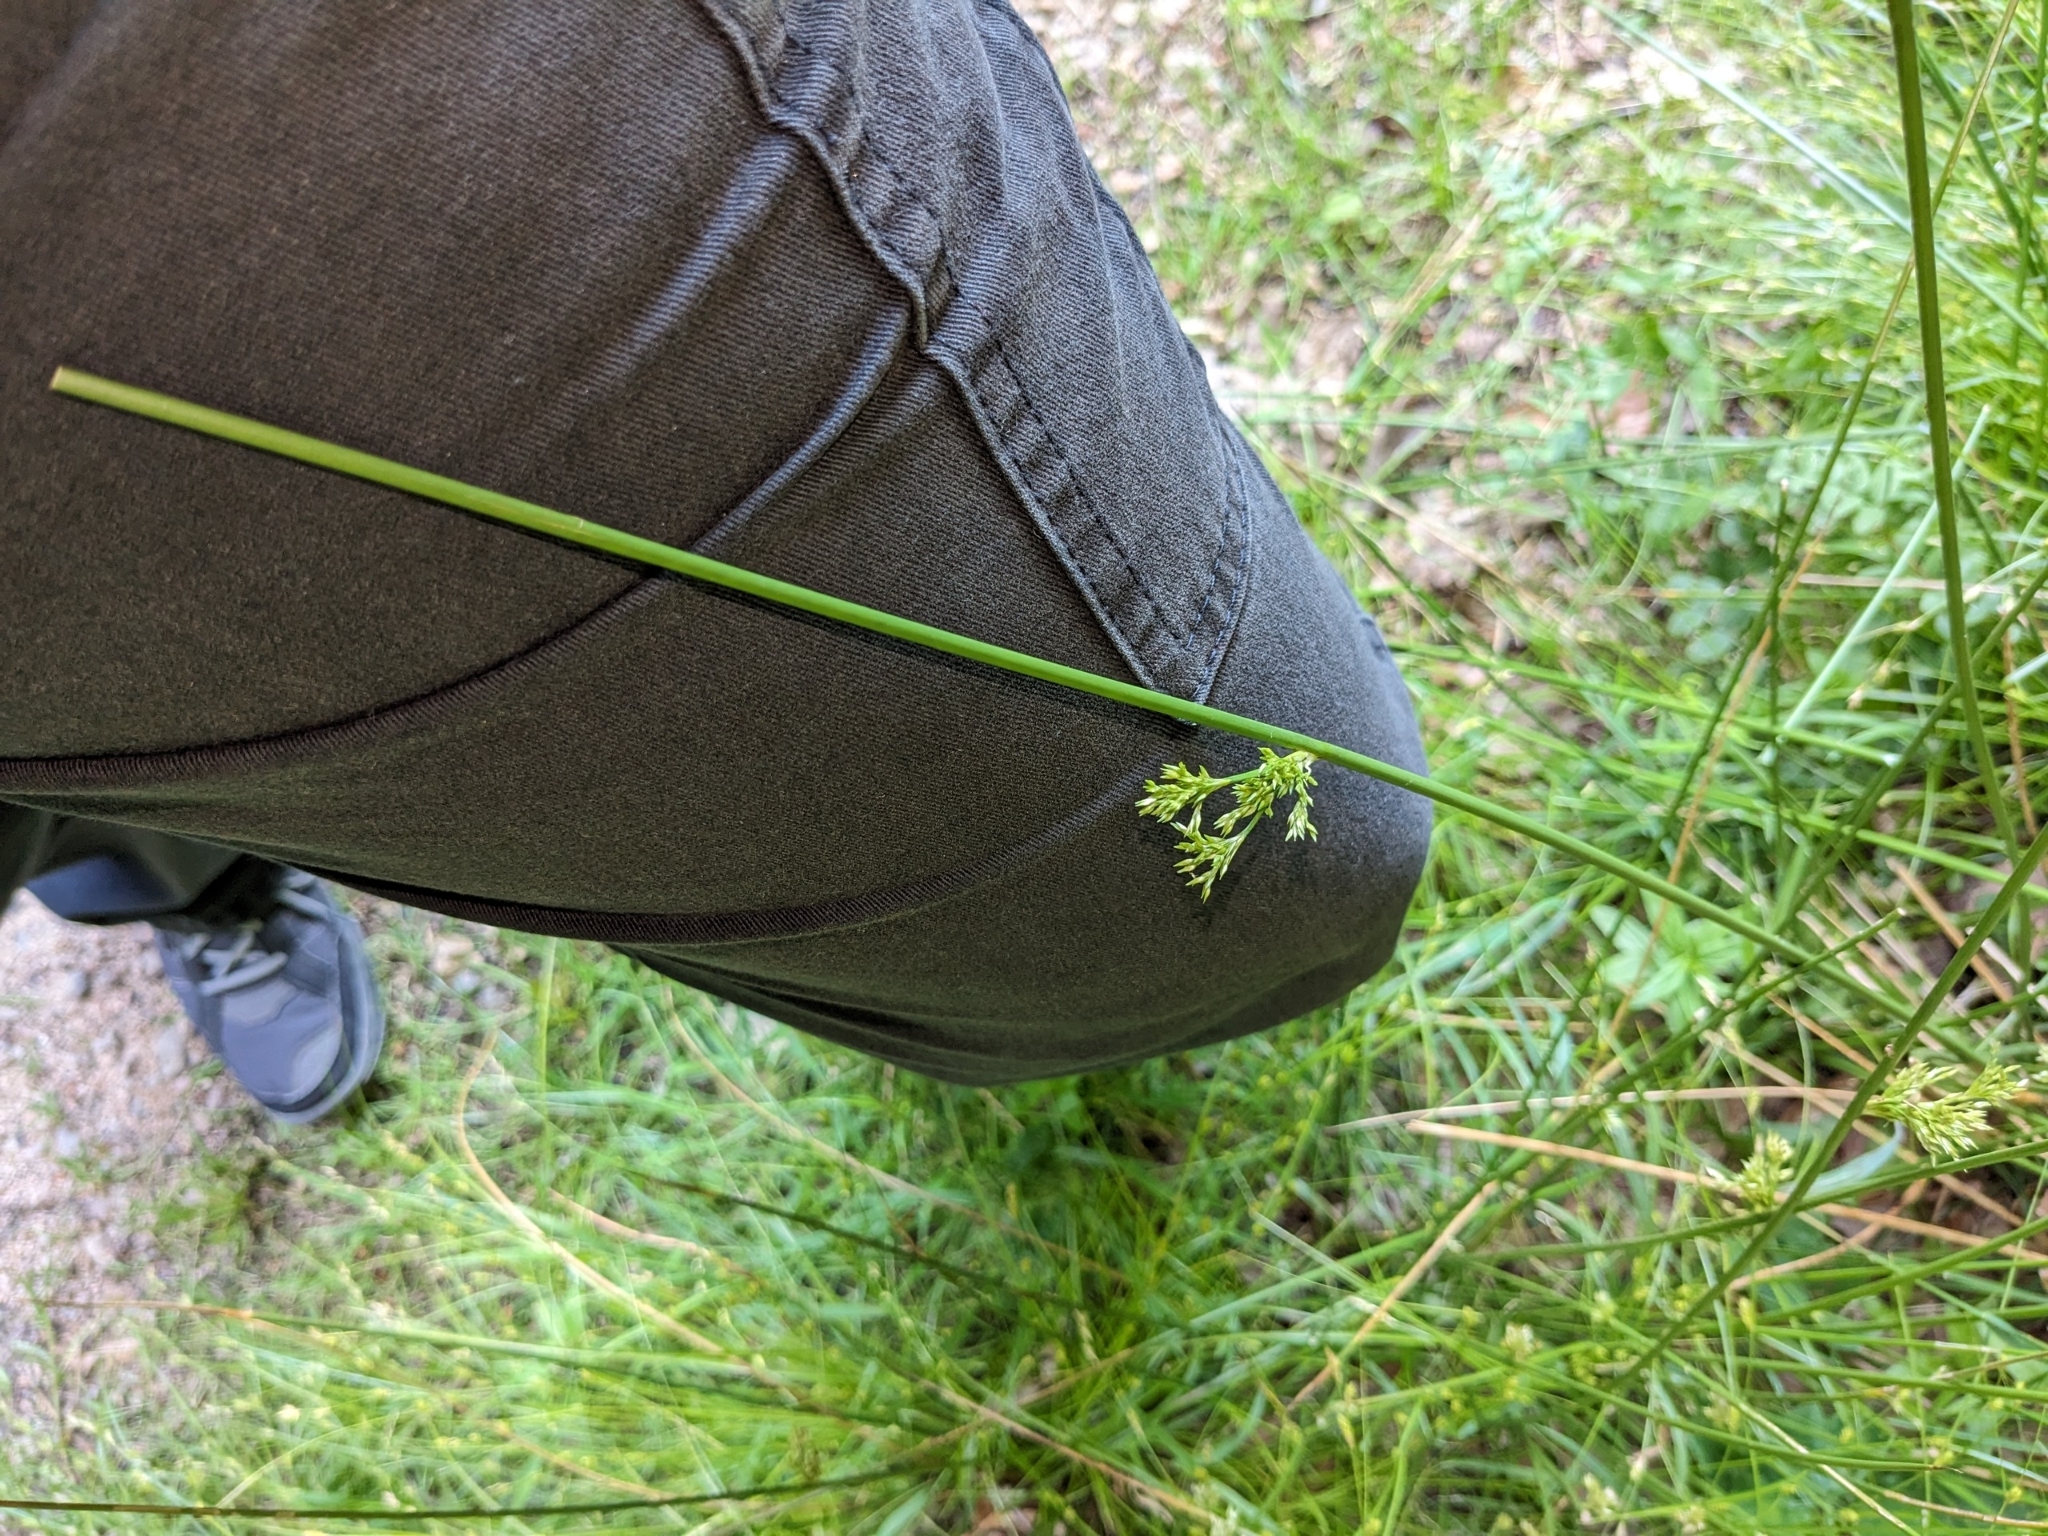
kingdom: Plantae
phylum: Tracheophyta
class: Liliopsida
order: Poales
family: Juncaceae
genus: Juncus
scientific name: Juncus effusus
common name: Soft rush
